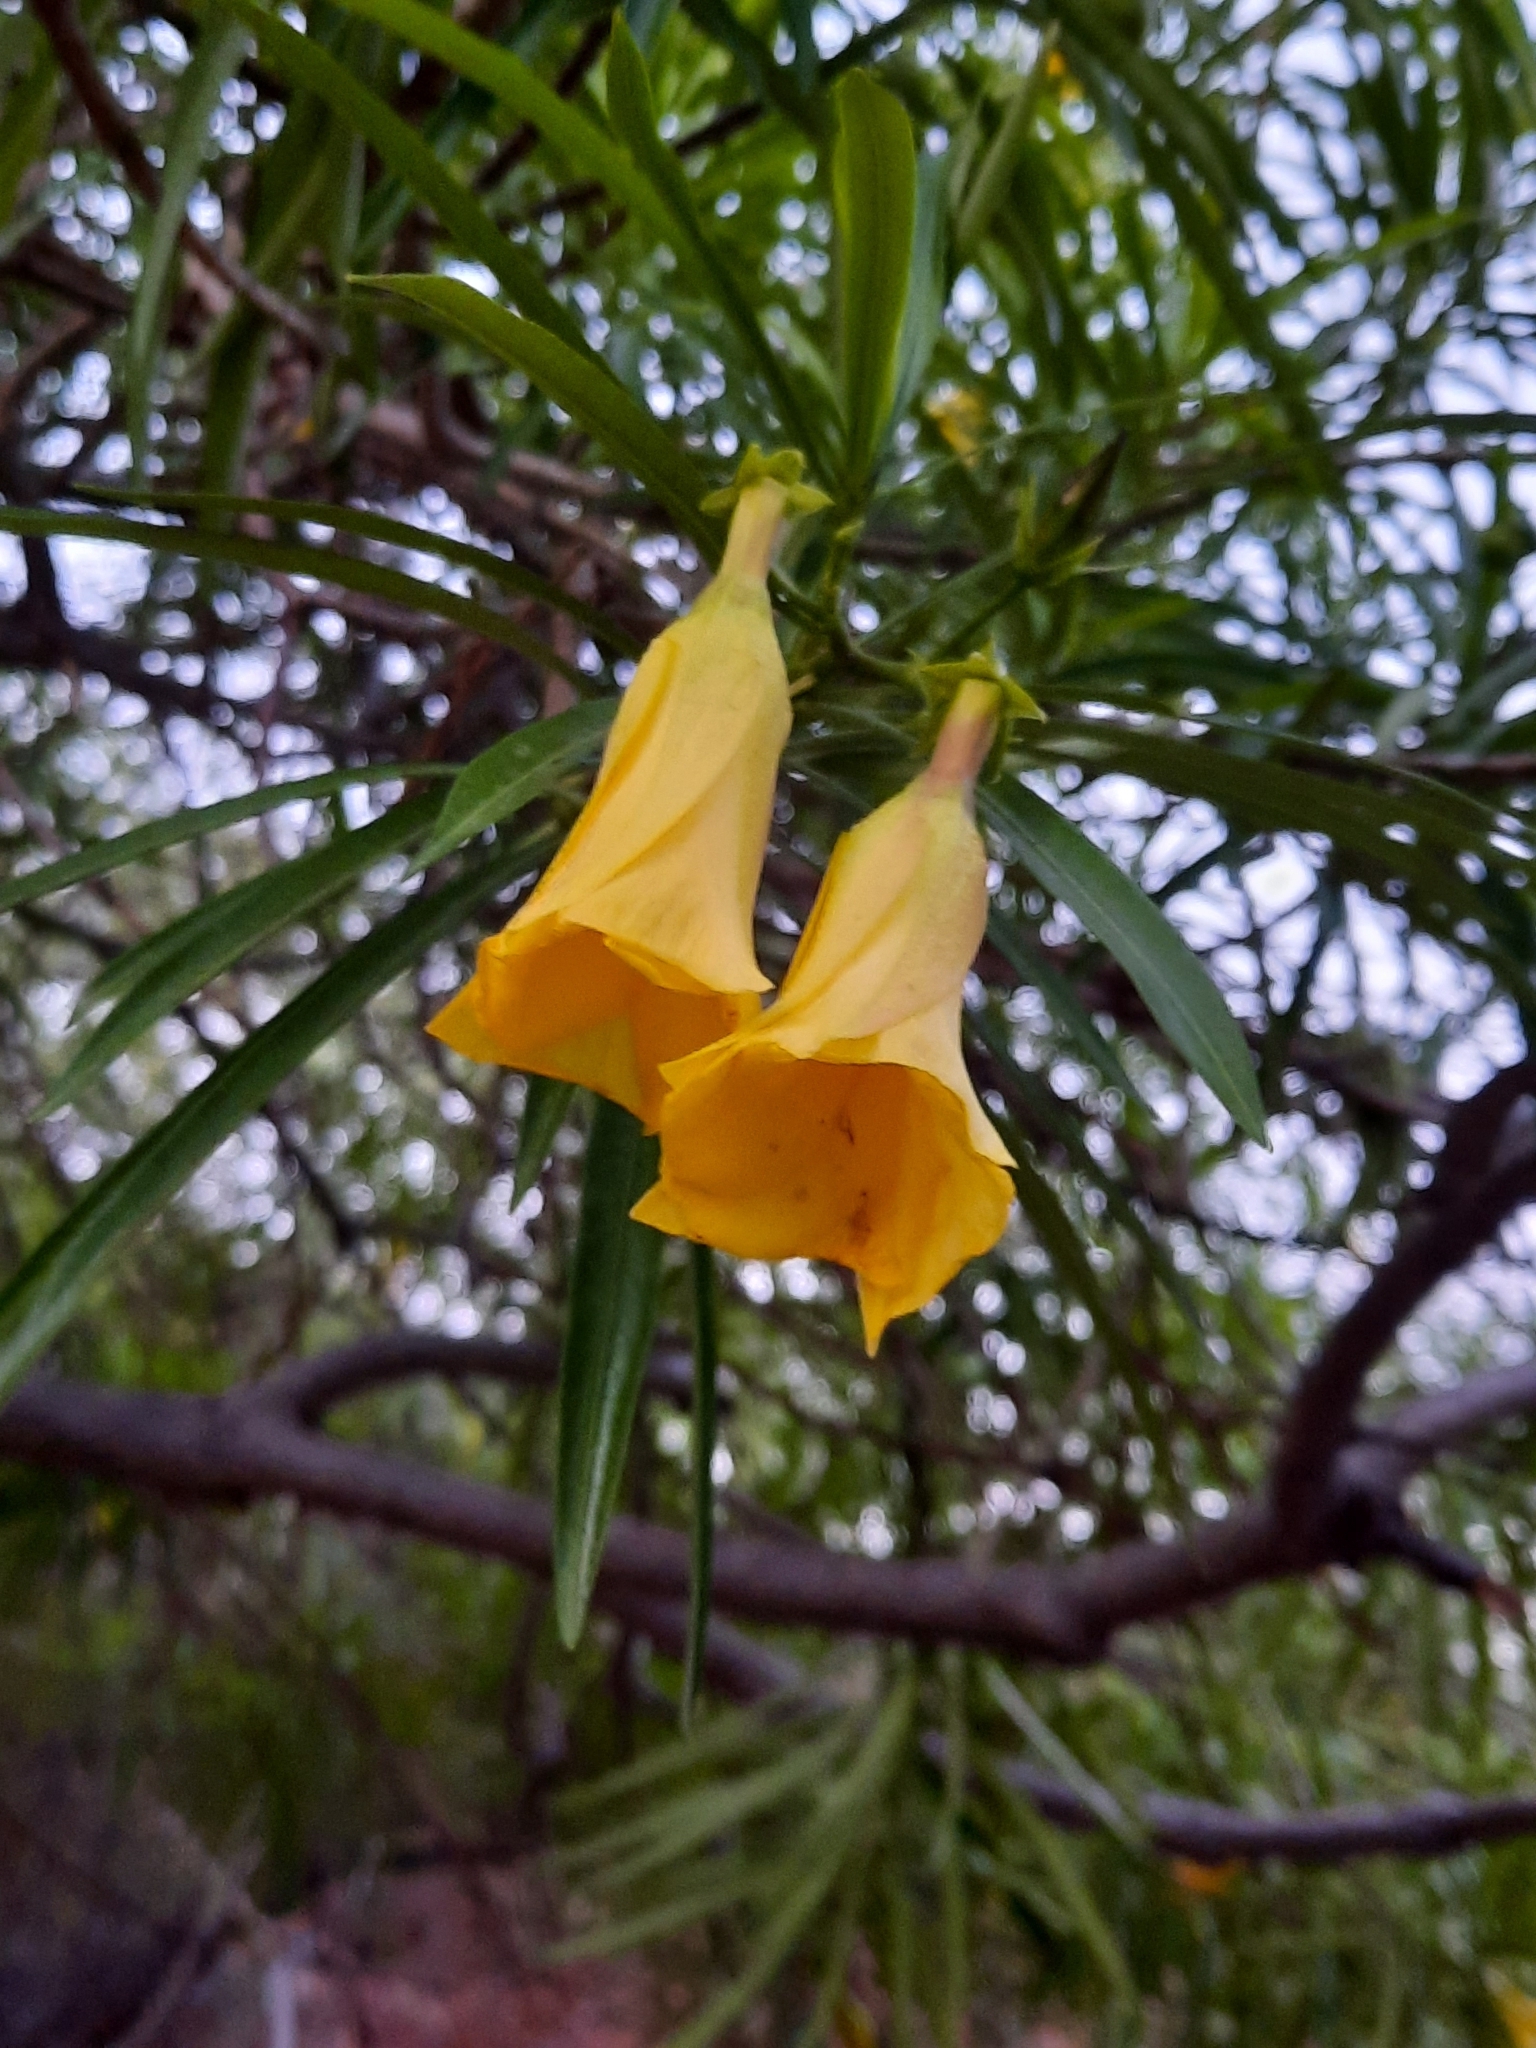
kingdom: Plantae
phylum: Tracheophyta
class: Magnoliopsida
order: Gentianales
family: Apocynaceae
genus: Cascabela
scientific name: Cascabela thevetia
